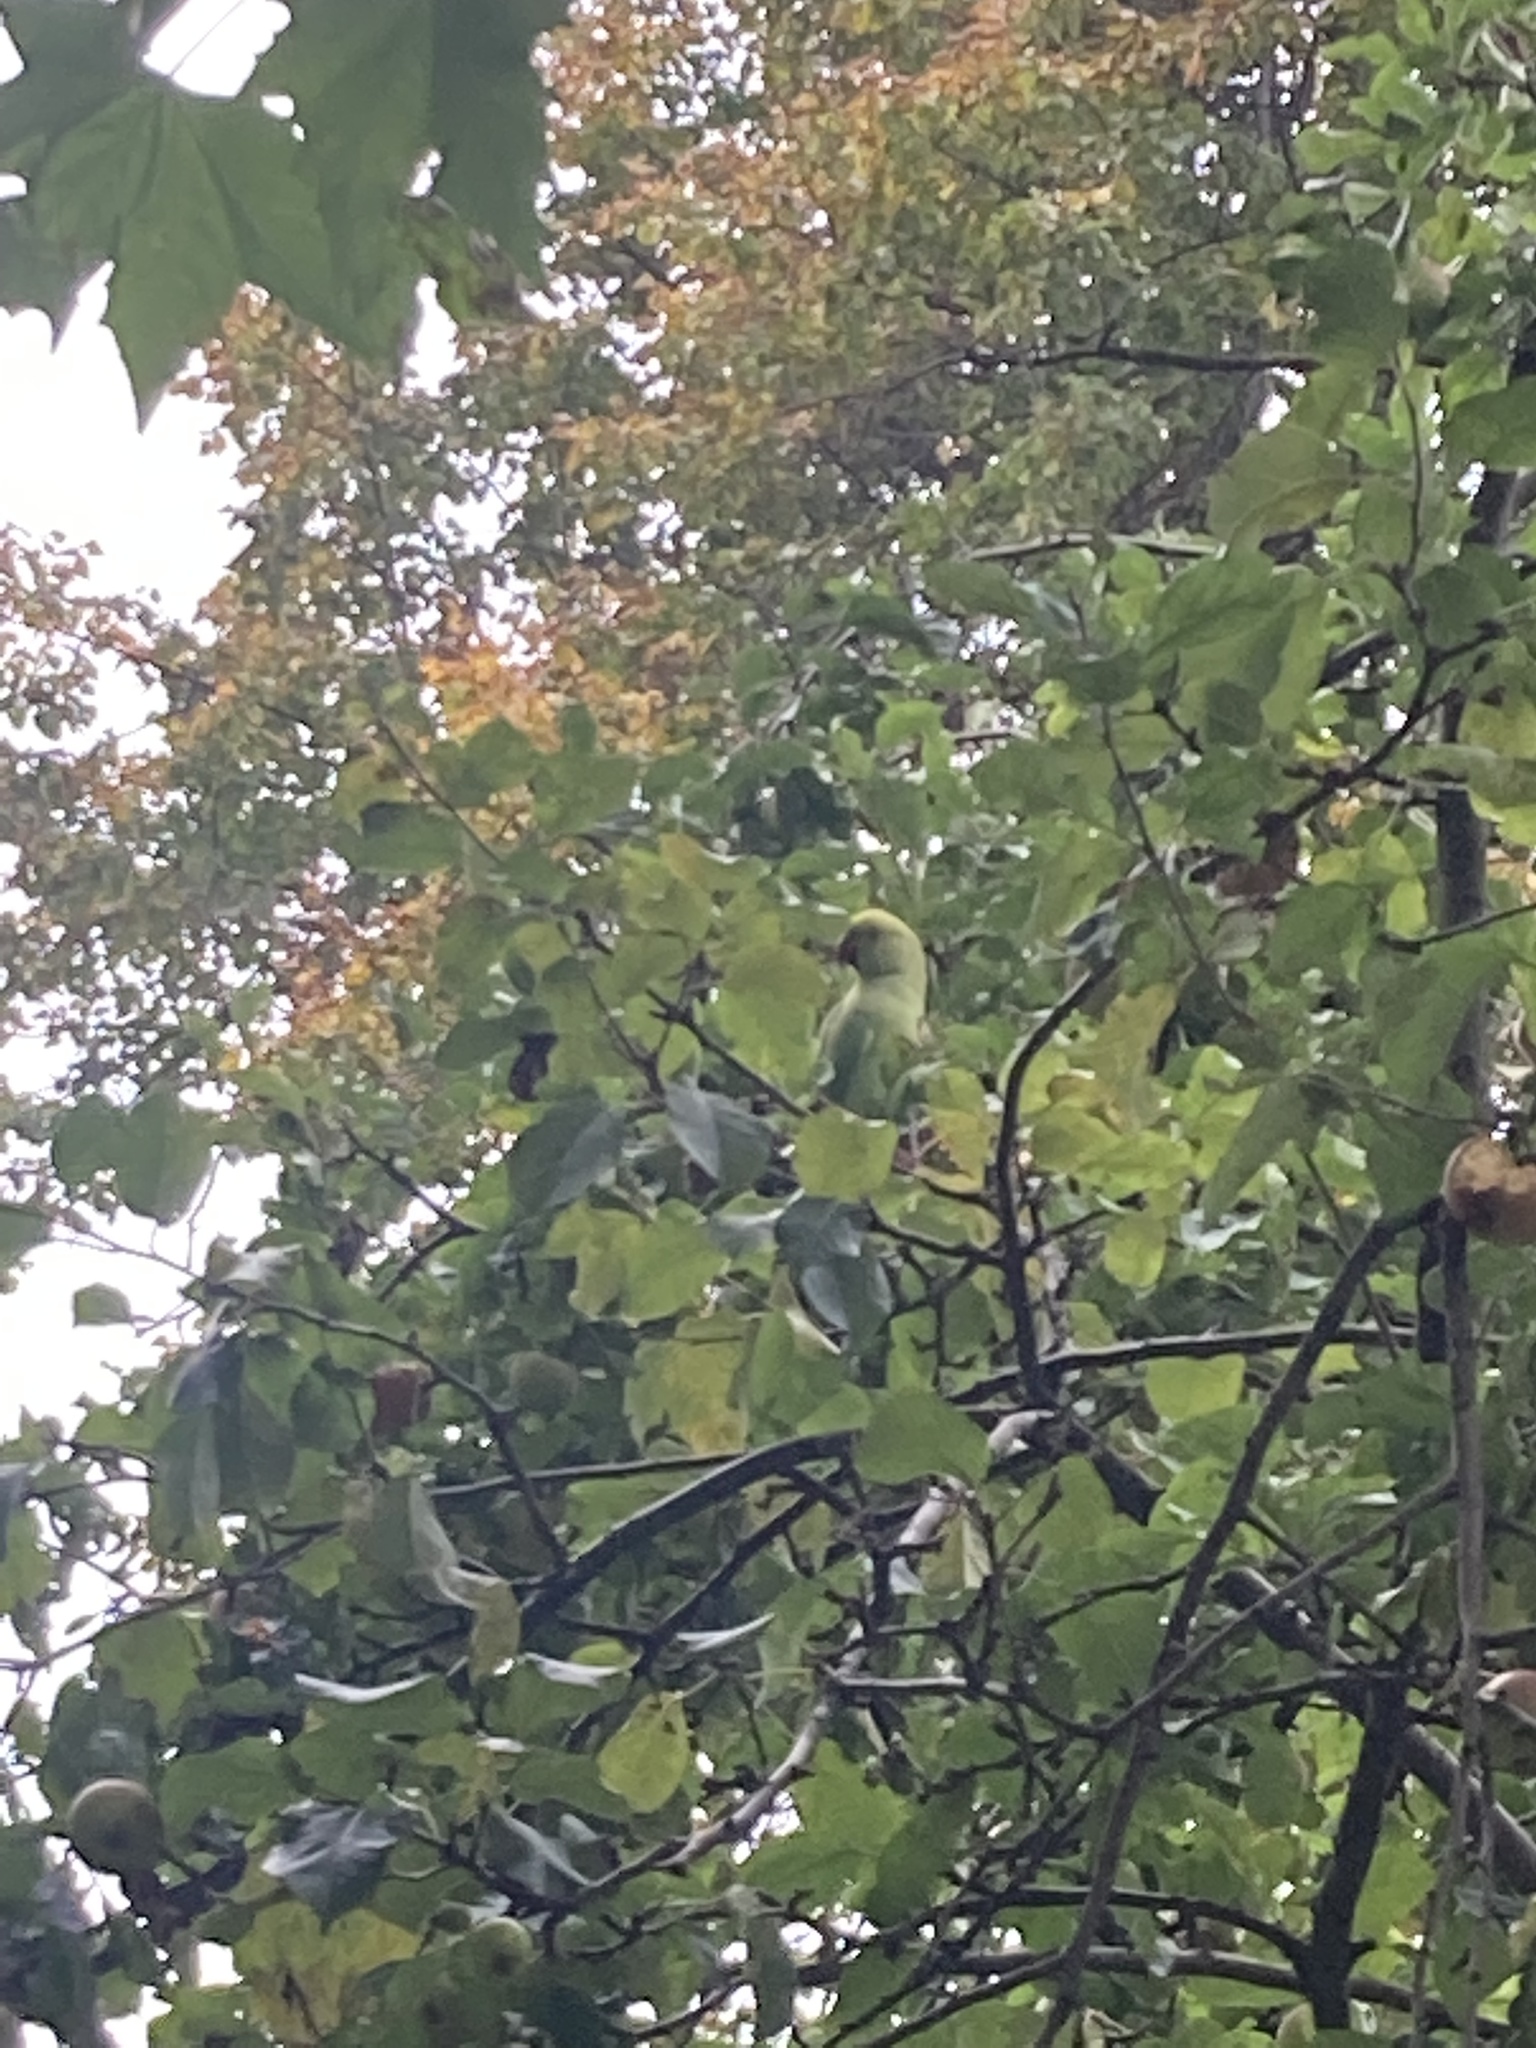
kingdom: Animalia
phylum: Chordata
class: Aves
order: Psittaciformes
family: Psittacidae
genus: Psittacula
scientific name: Psittacula krameri
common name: Rose-ringed parakeet
